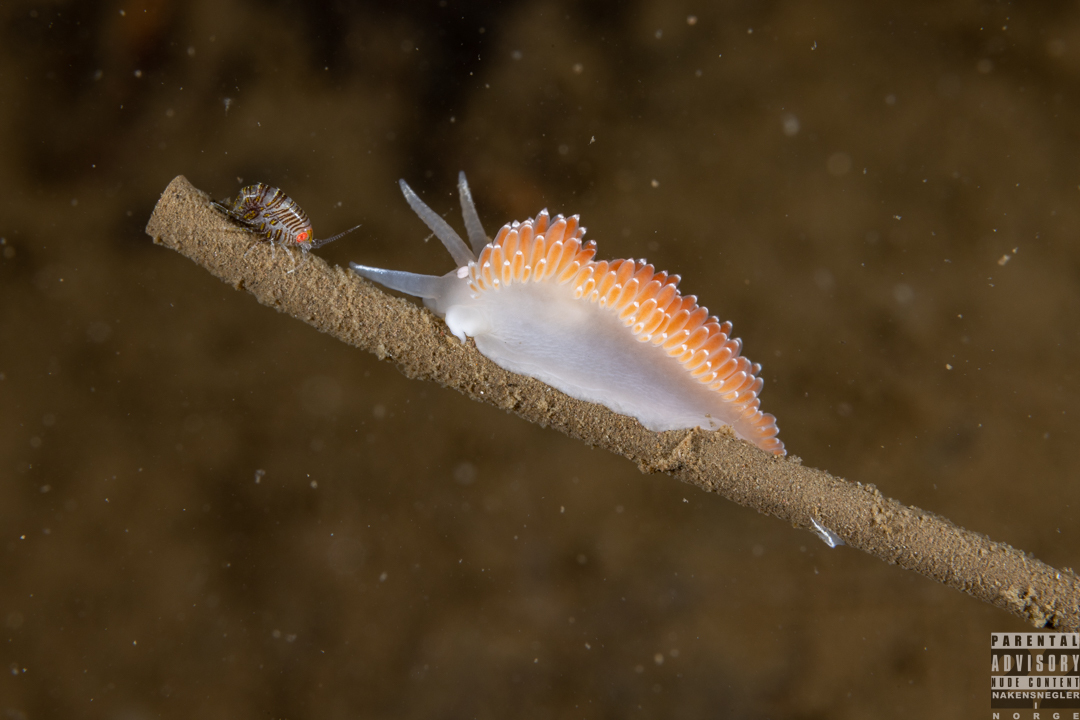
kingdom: Animalia
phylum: Mollusca
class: Gastropoda
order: Nudibranchia
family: Coryphellidae
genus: Coryphella
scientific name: Coryphella verrucosa
